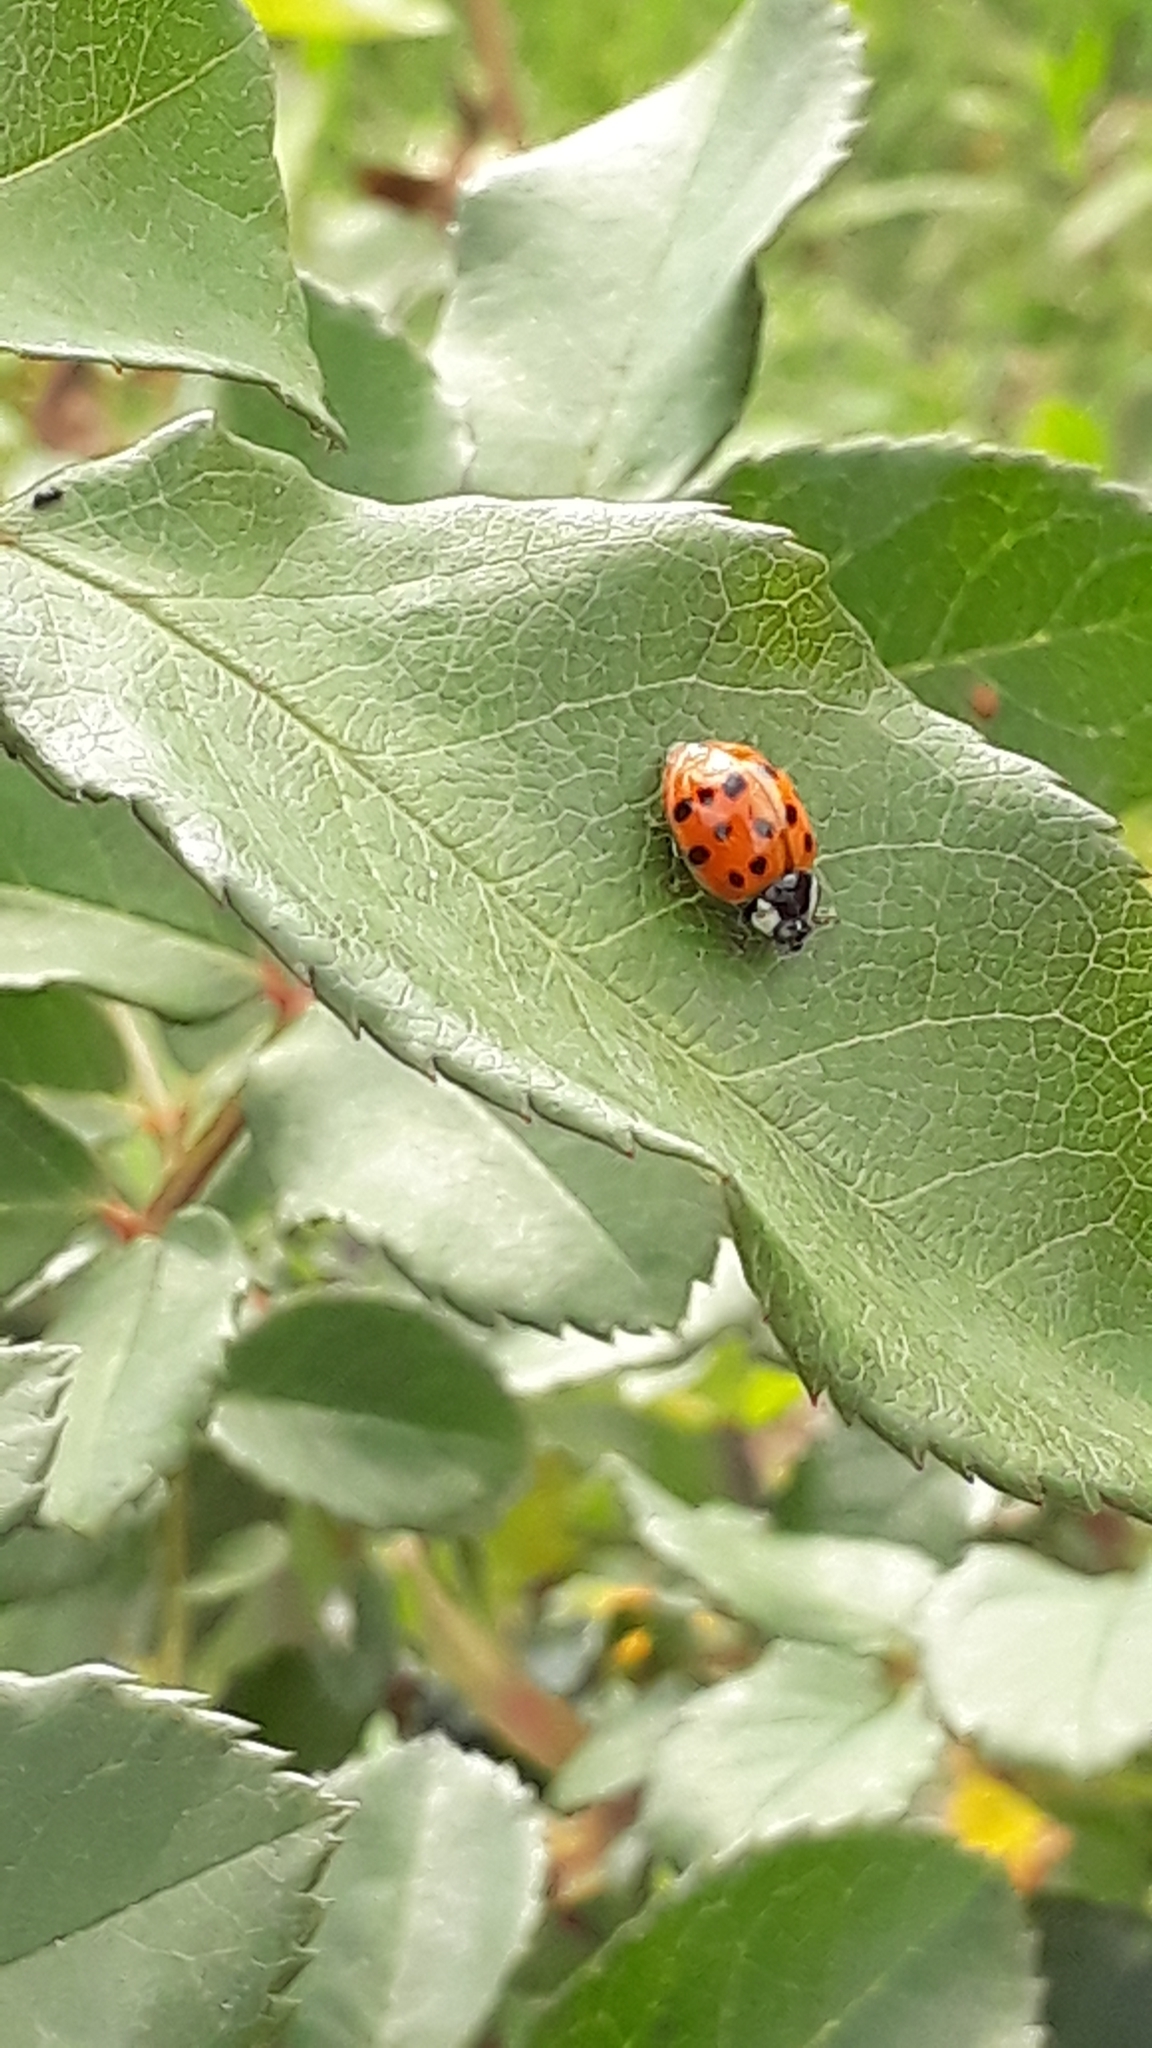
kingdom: Animalia
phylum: Arthropoda
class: Insecta
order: Coleoptera
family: Coccinellidae
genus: Harmonia
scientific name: Harmonia axyridis
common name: Harlequin ladybird
